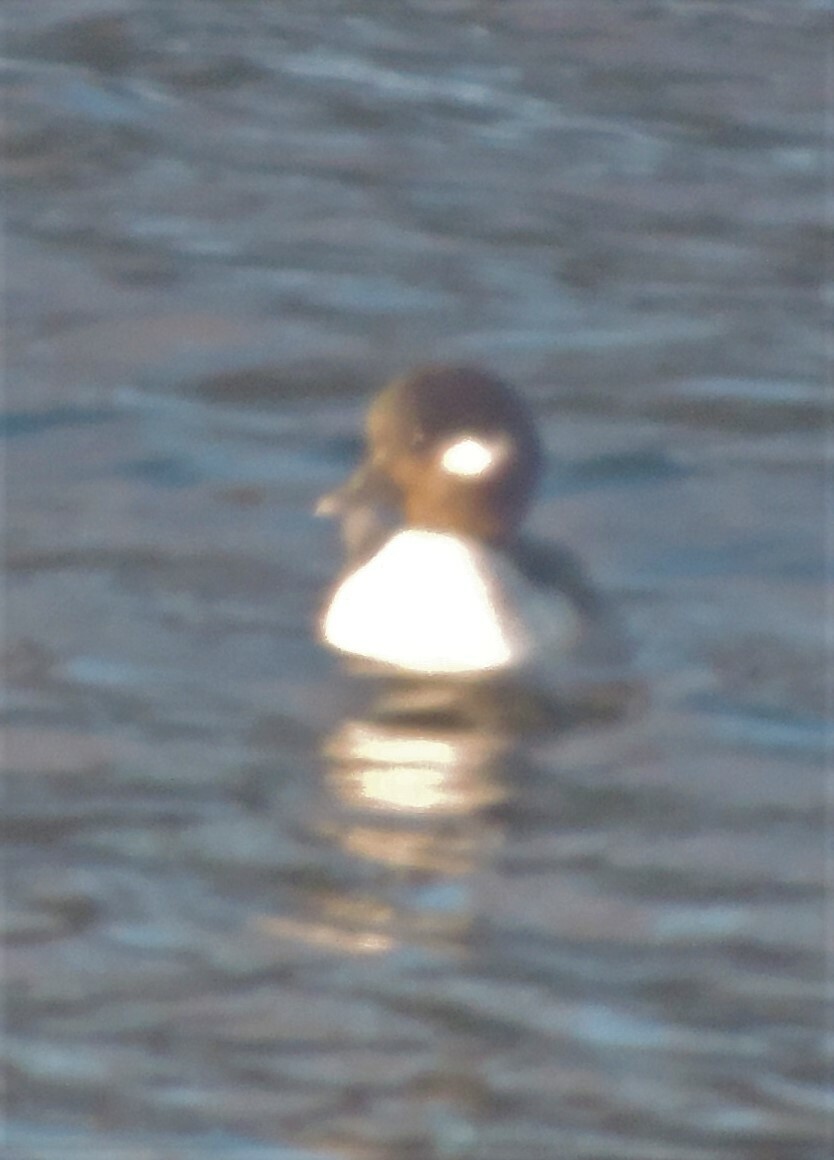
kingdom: Animalia
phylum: Chordata
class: Aves
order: Anseriformes
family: Anatidae
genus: Bucephala
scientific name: Bucephala albeola
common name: Bufflehead
